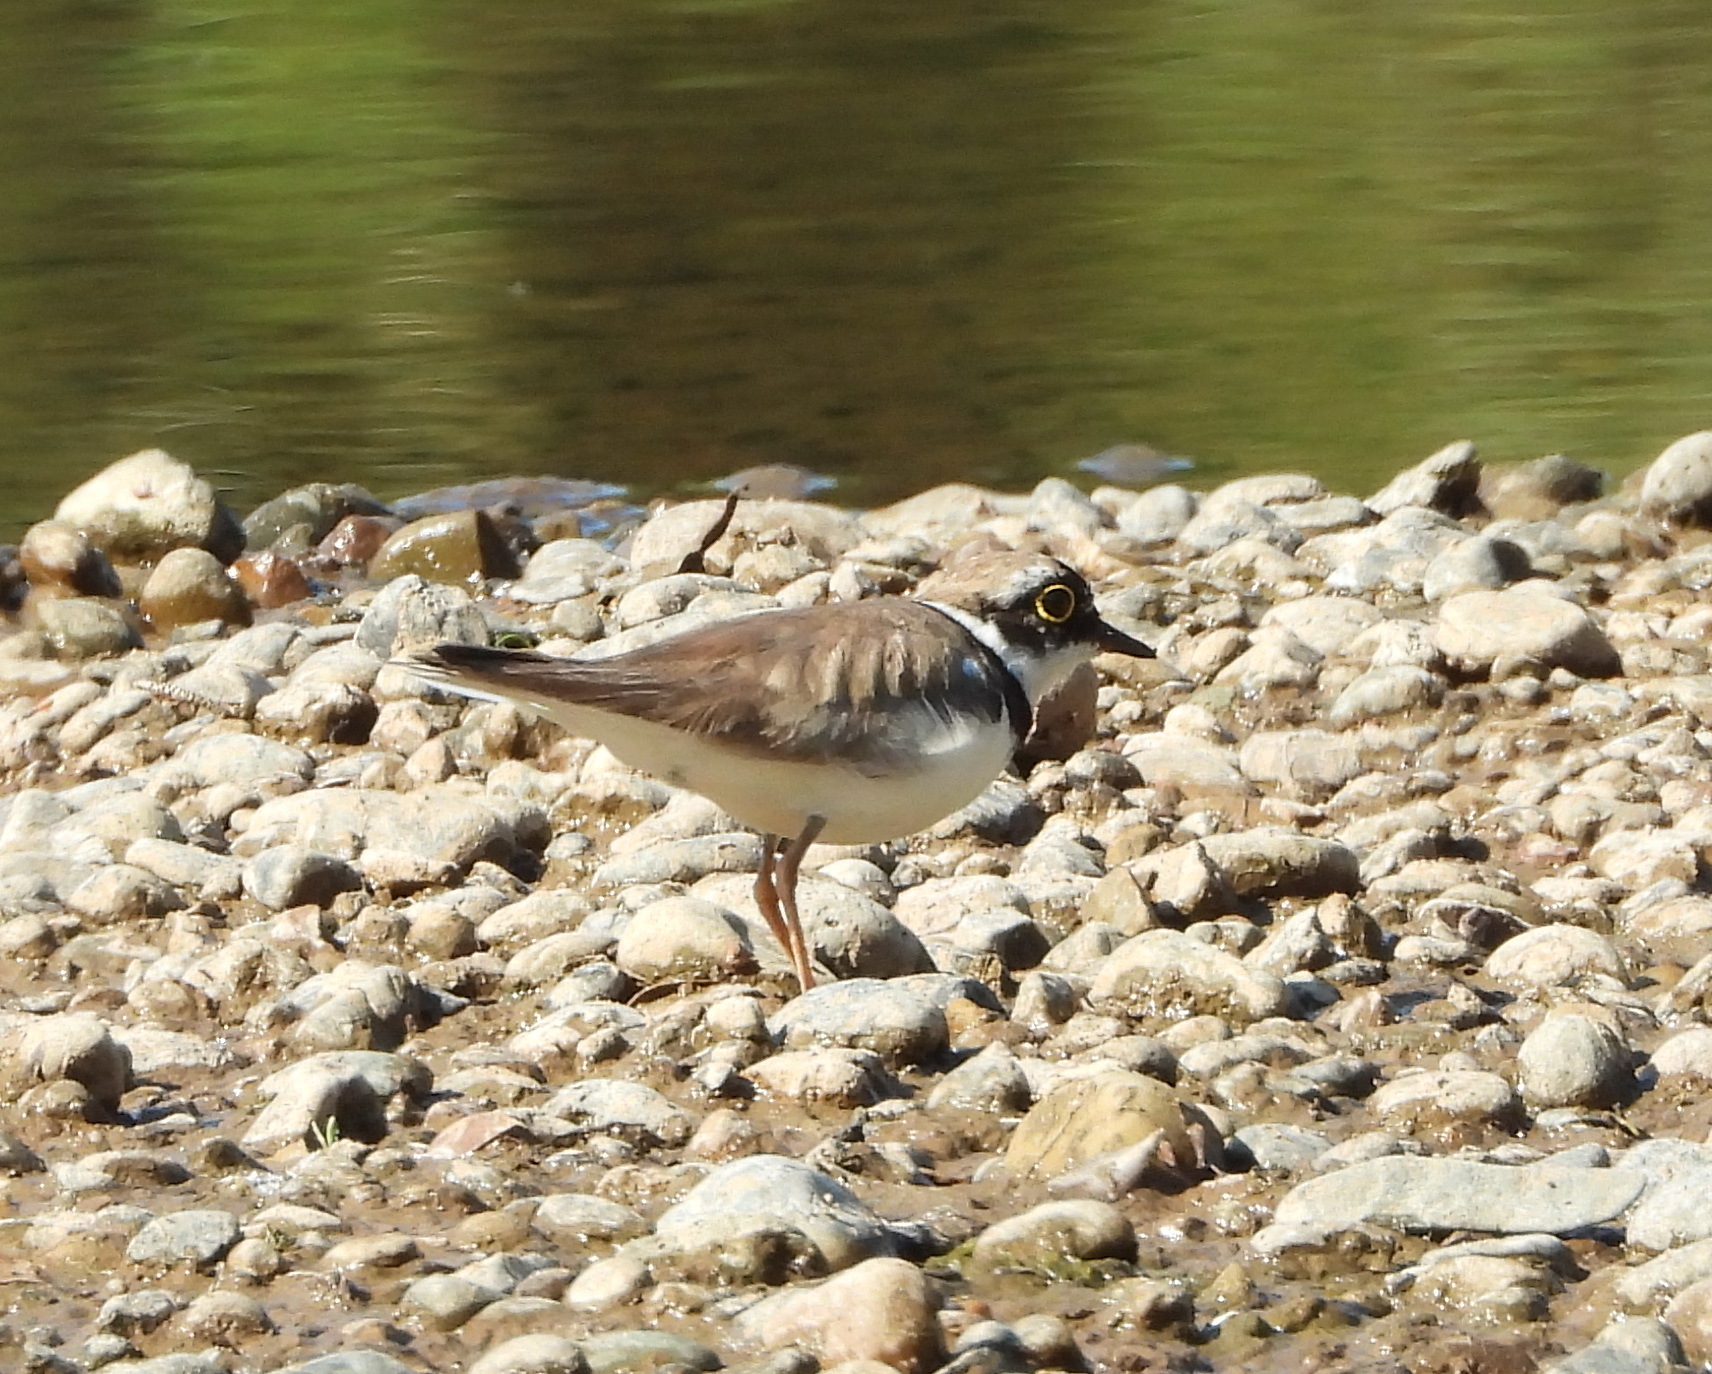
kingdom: Animalia
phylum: Chordata
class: Aves
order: Charadriiformes
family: Charadriidae
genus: Charadrius
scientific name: Charadrius dubius
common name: Little ringed plover
